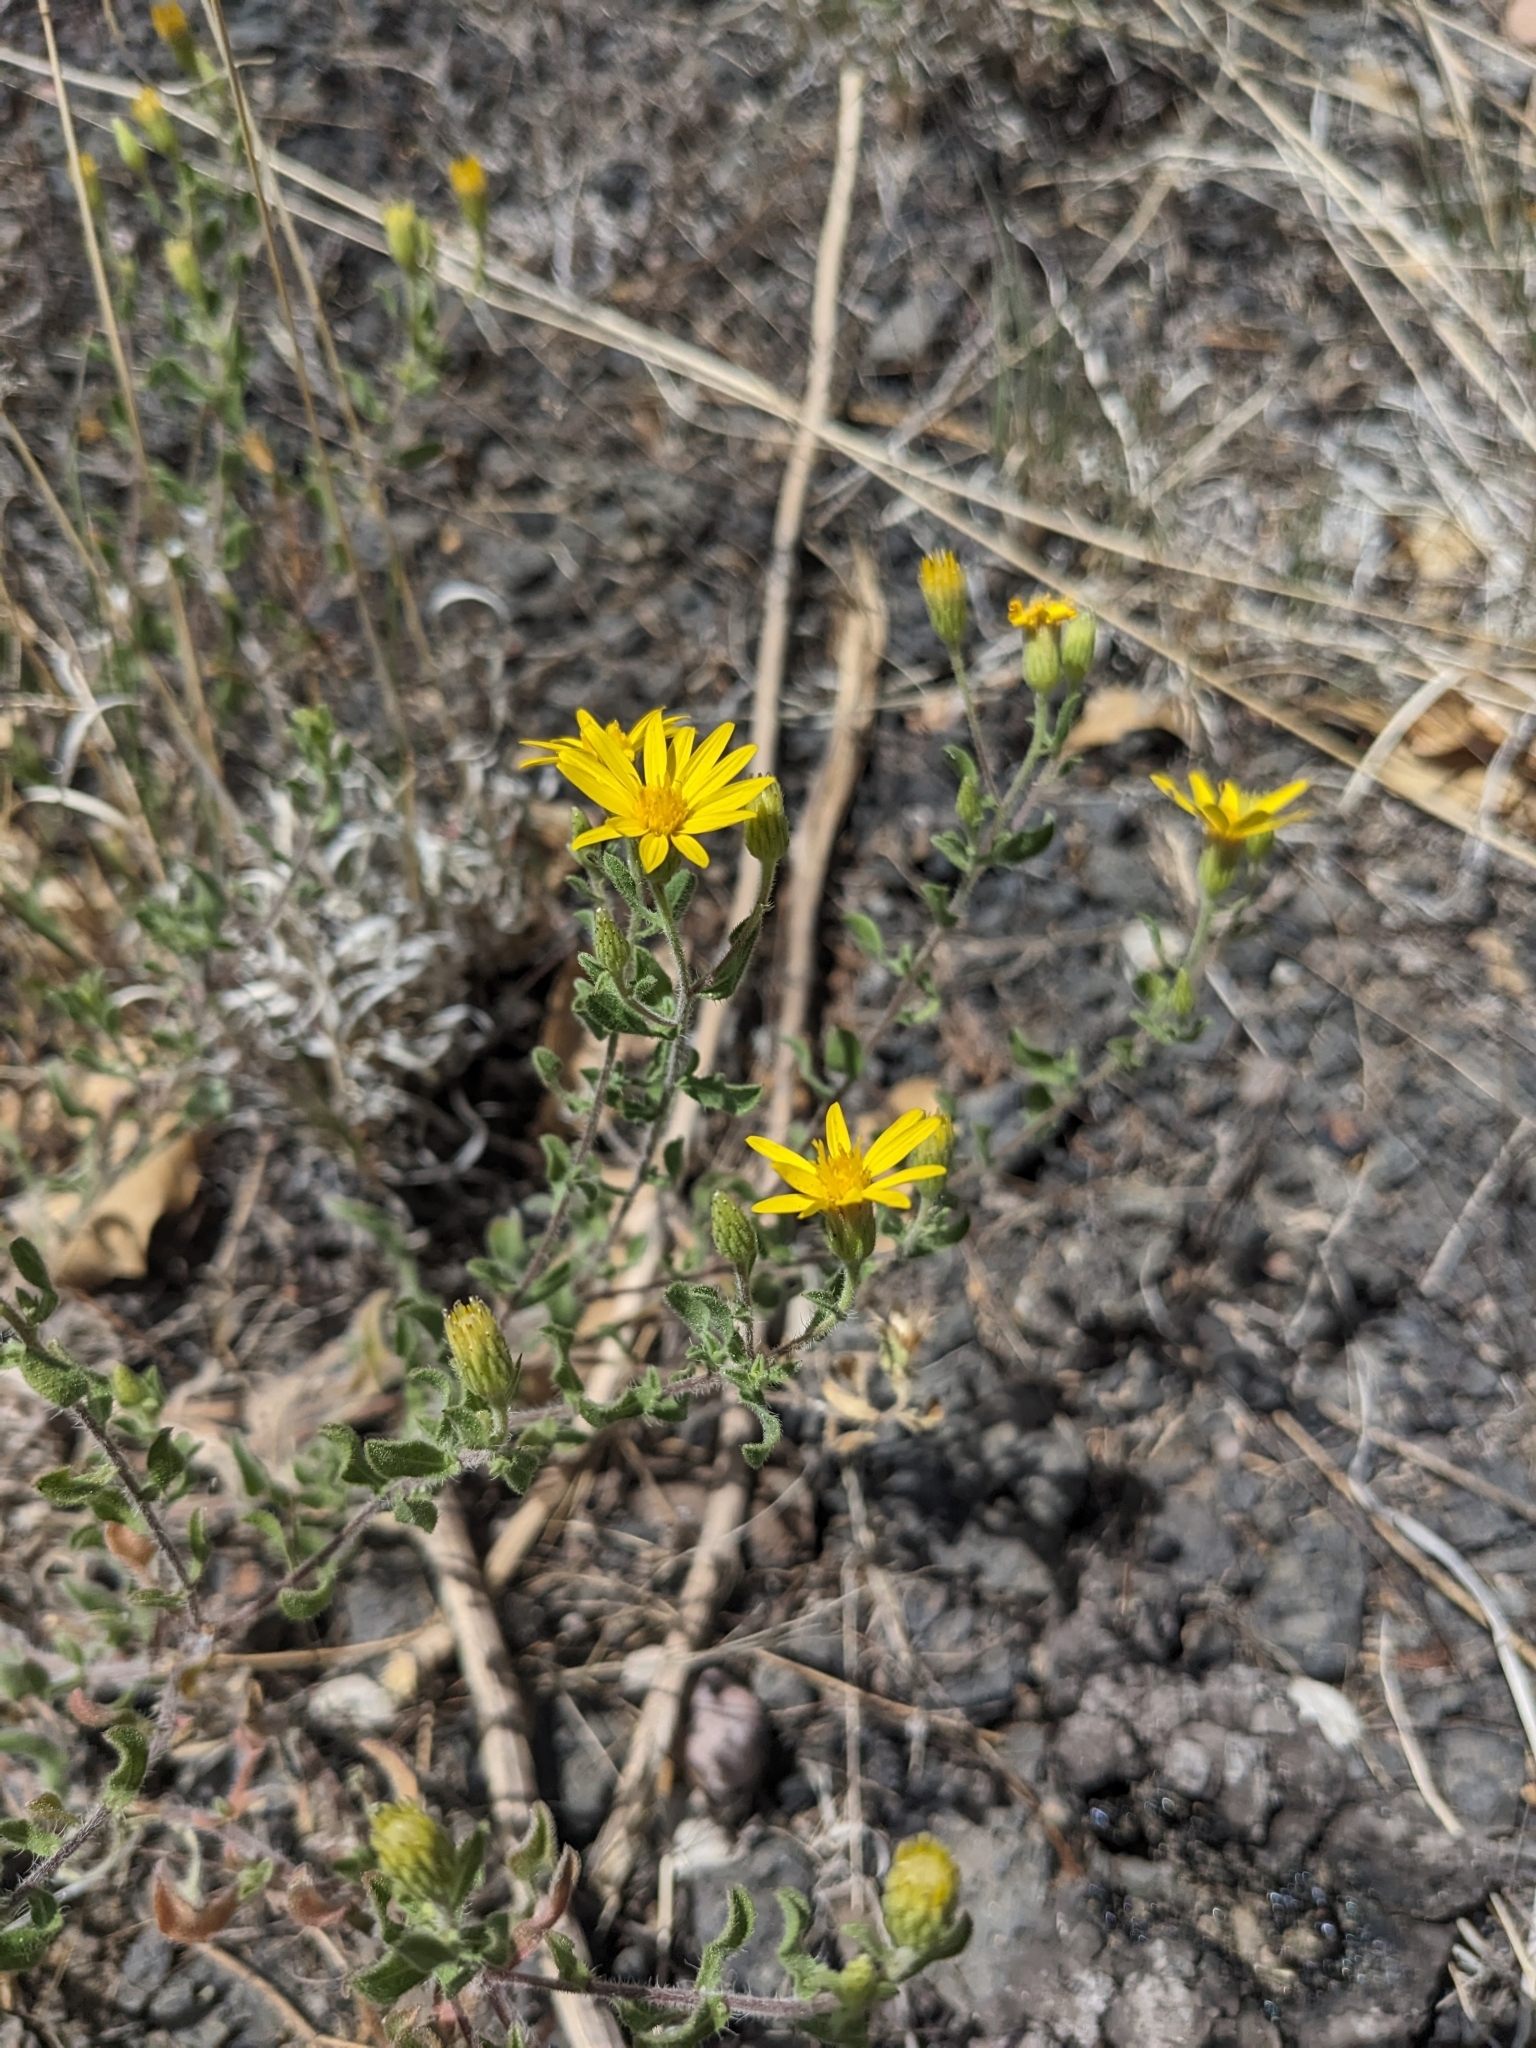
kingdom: Plantae
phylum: Tracheophyta
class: Magnoliopsida
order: Asterales
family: Asteraceae
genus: Heterotheca
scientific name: Heterotheca hirsutissima
